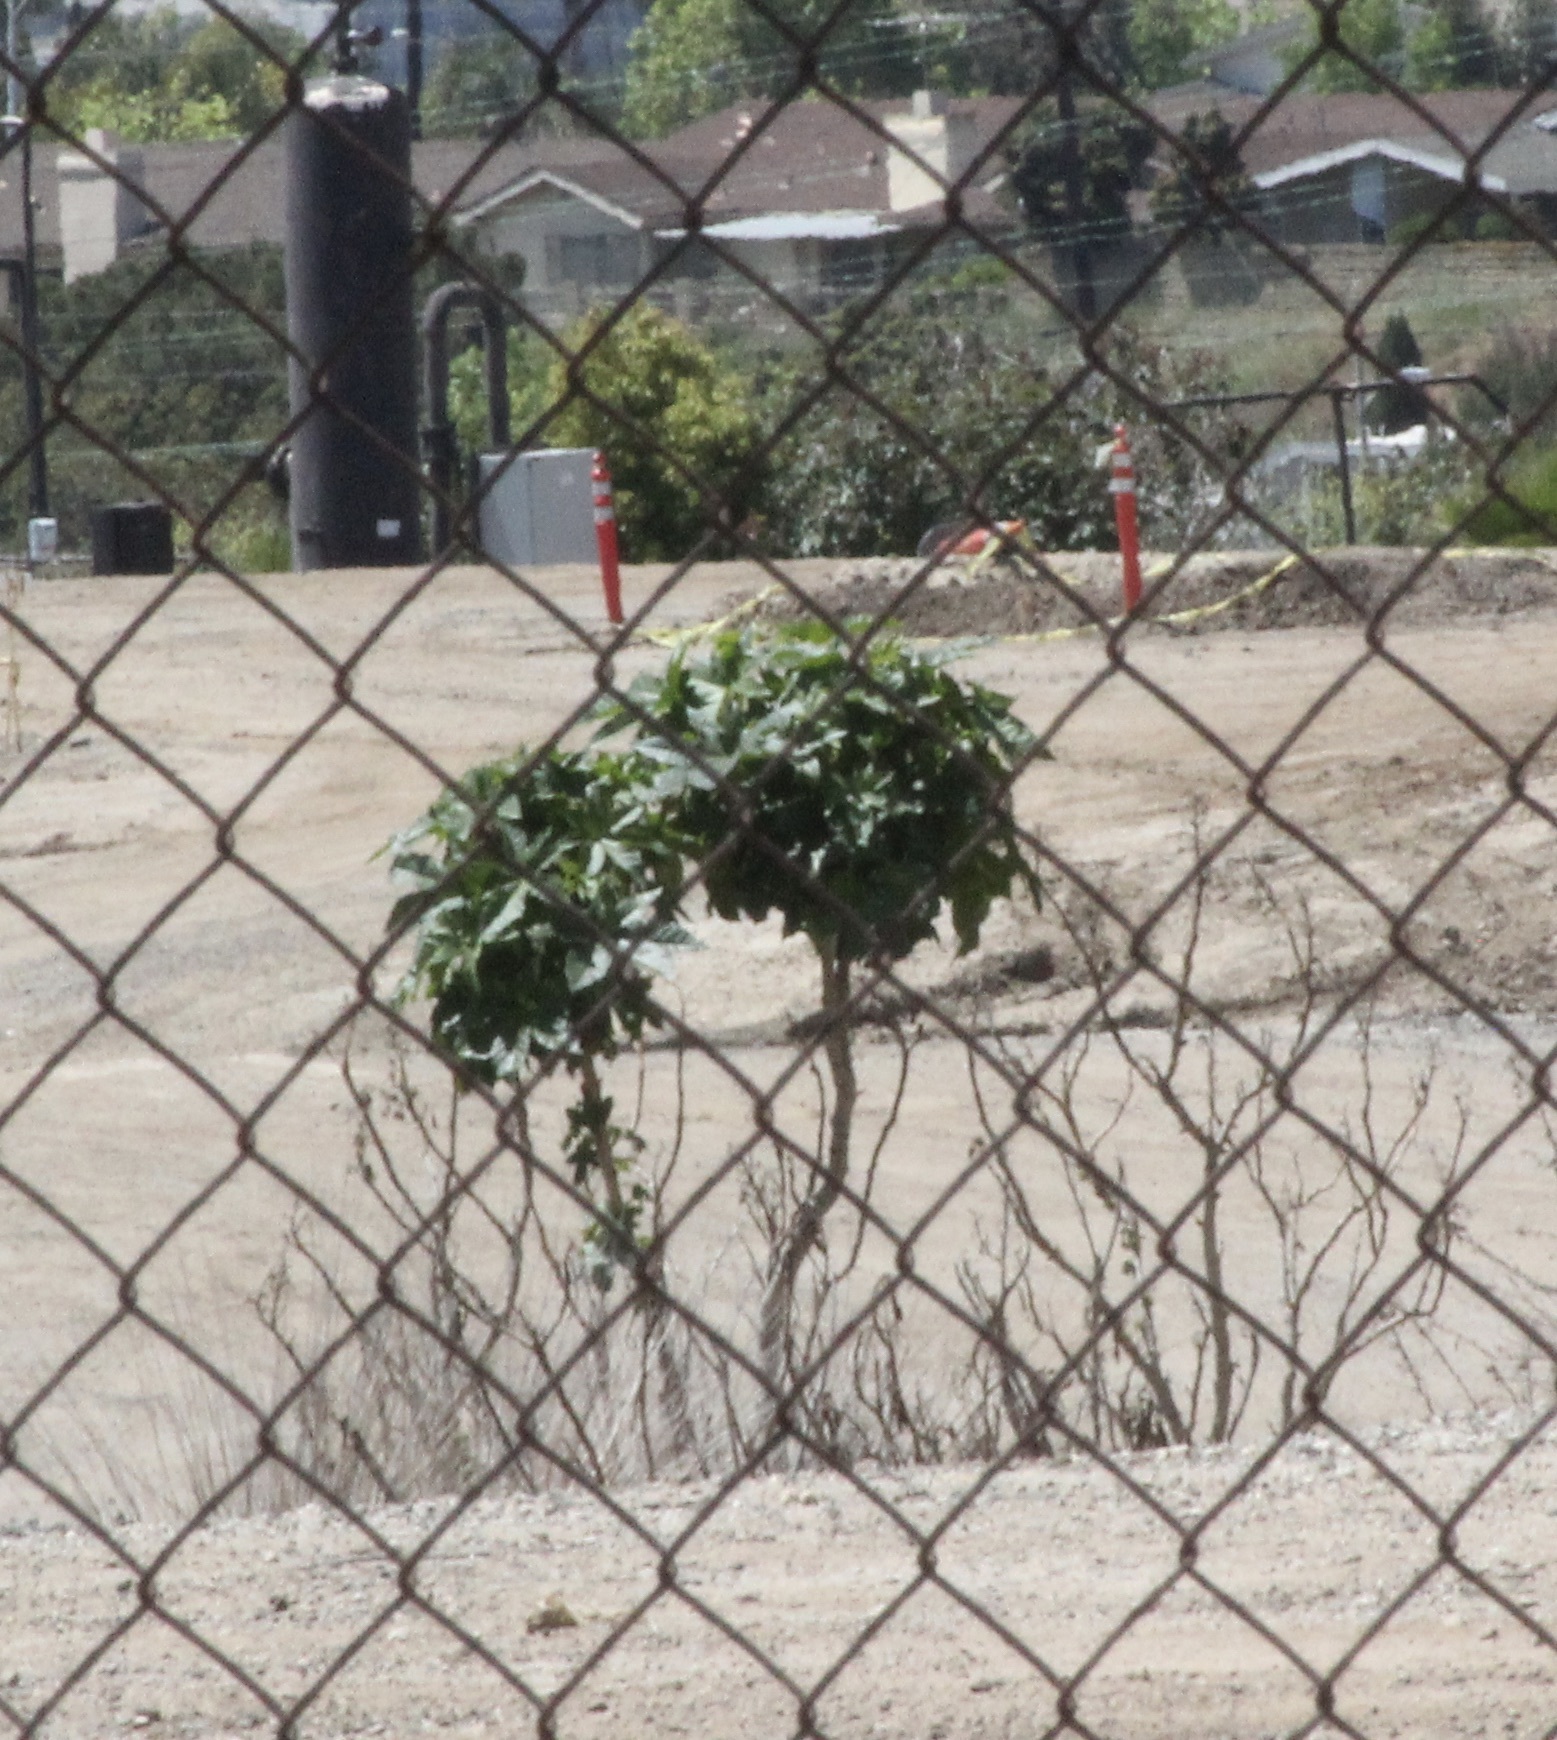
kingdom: Plantae
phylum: Tracheophyta
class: Magnoliopsida
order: Malpighiales
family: Euphorbiaceae
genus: Ricinus
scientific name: Ricinus communis
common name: Castor-oil-plant
